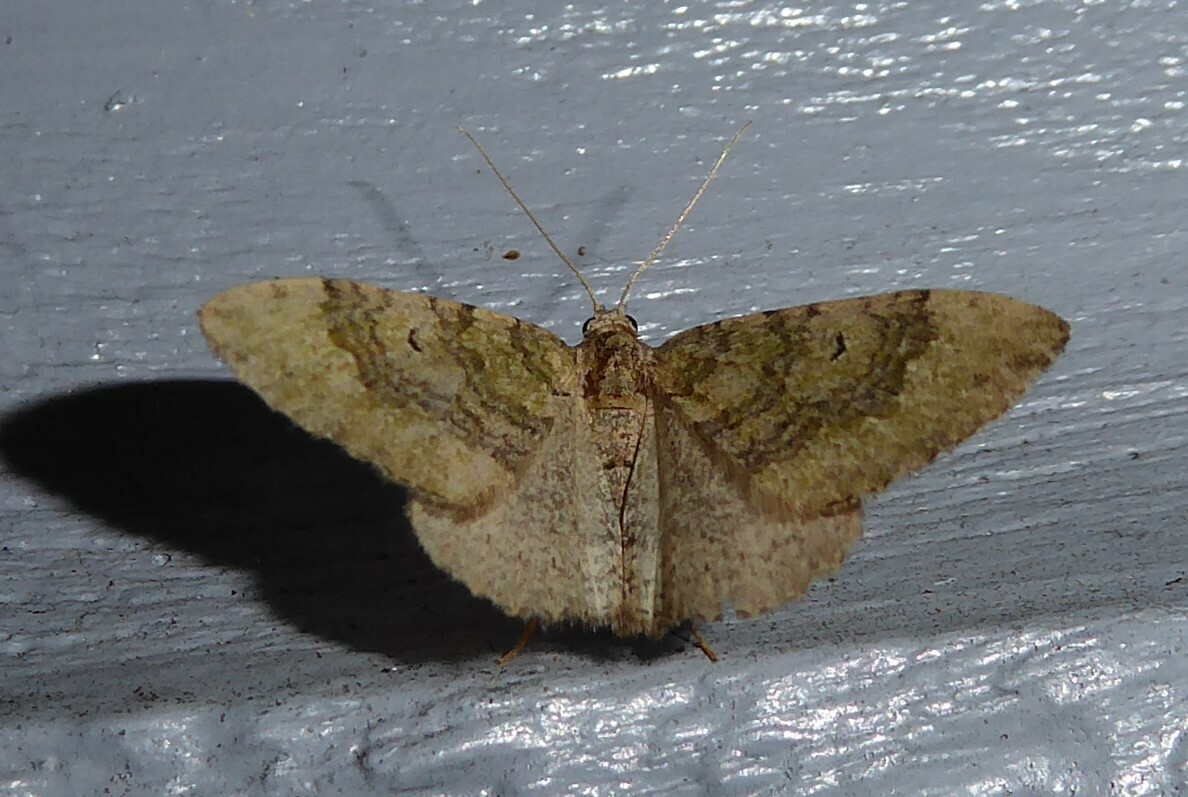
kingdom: Animalia
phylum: Arthropoda
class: Insecta
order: Lepidoptera
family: Geometridae
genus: Epyaxa
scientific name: Epyaxa rosearia
